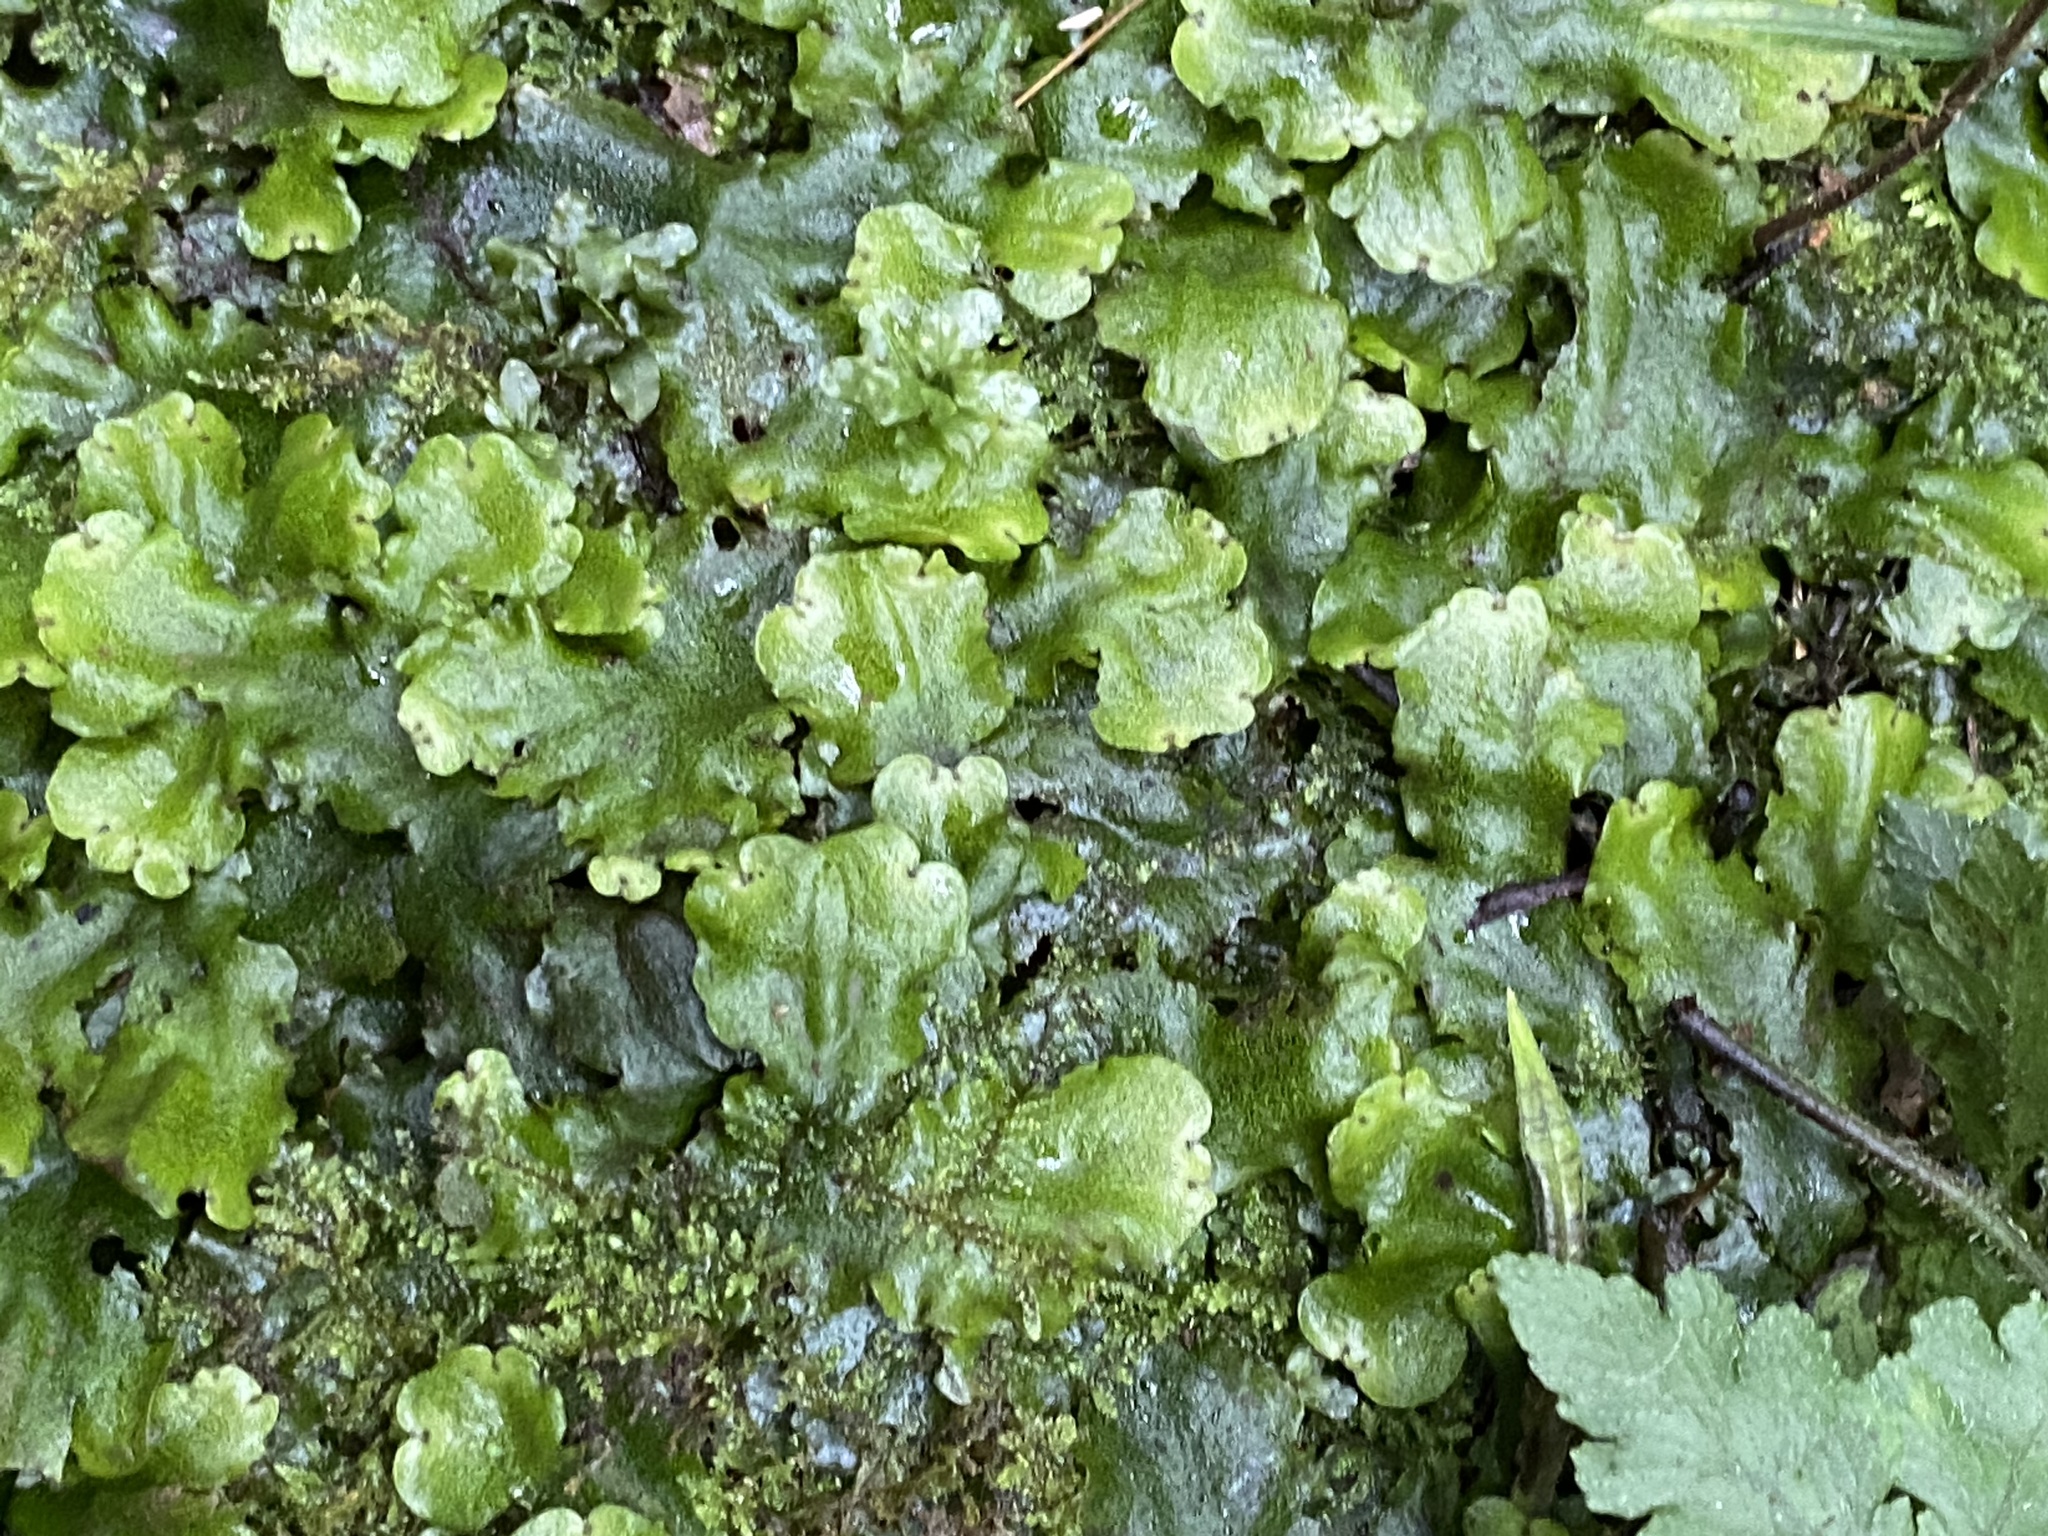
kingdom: Plantae
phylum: Marchantiophyta
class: Marchantiopsida
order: Marchantiales
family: Monocleaceae
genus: Monoclea
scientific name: Monoclea gottschei
